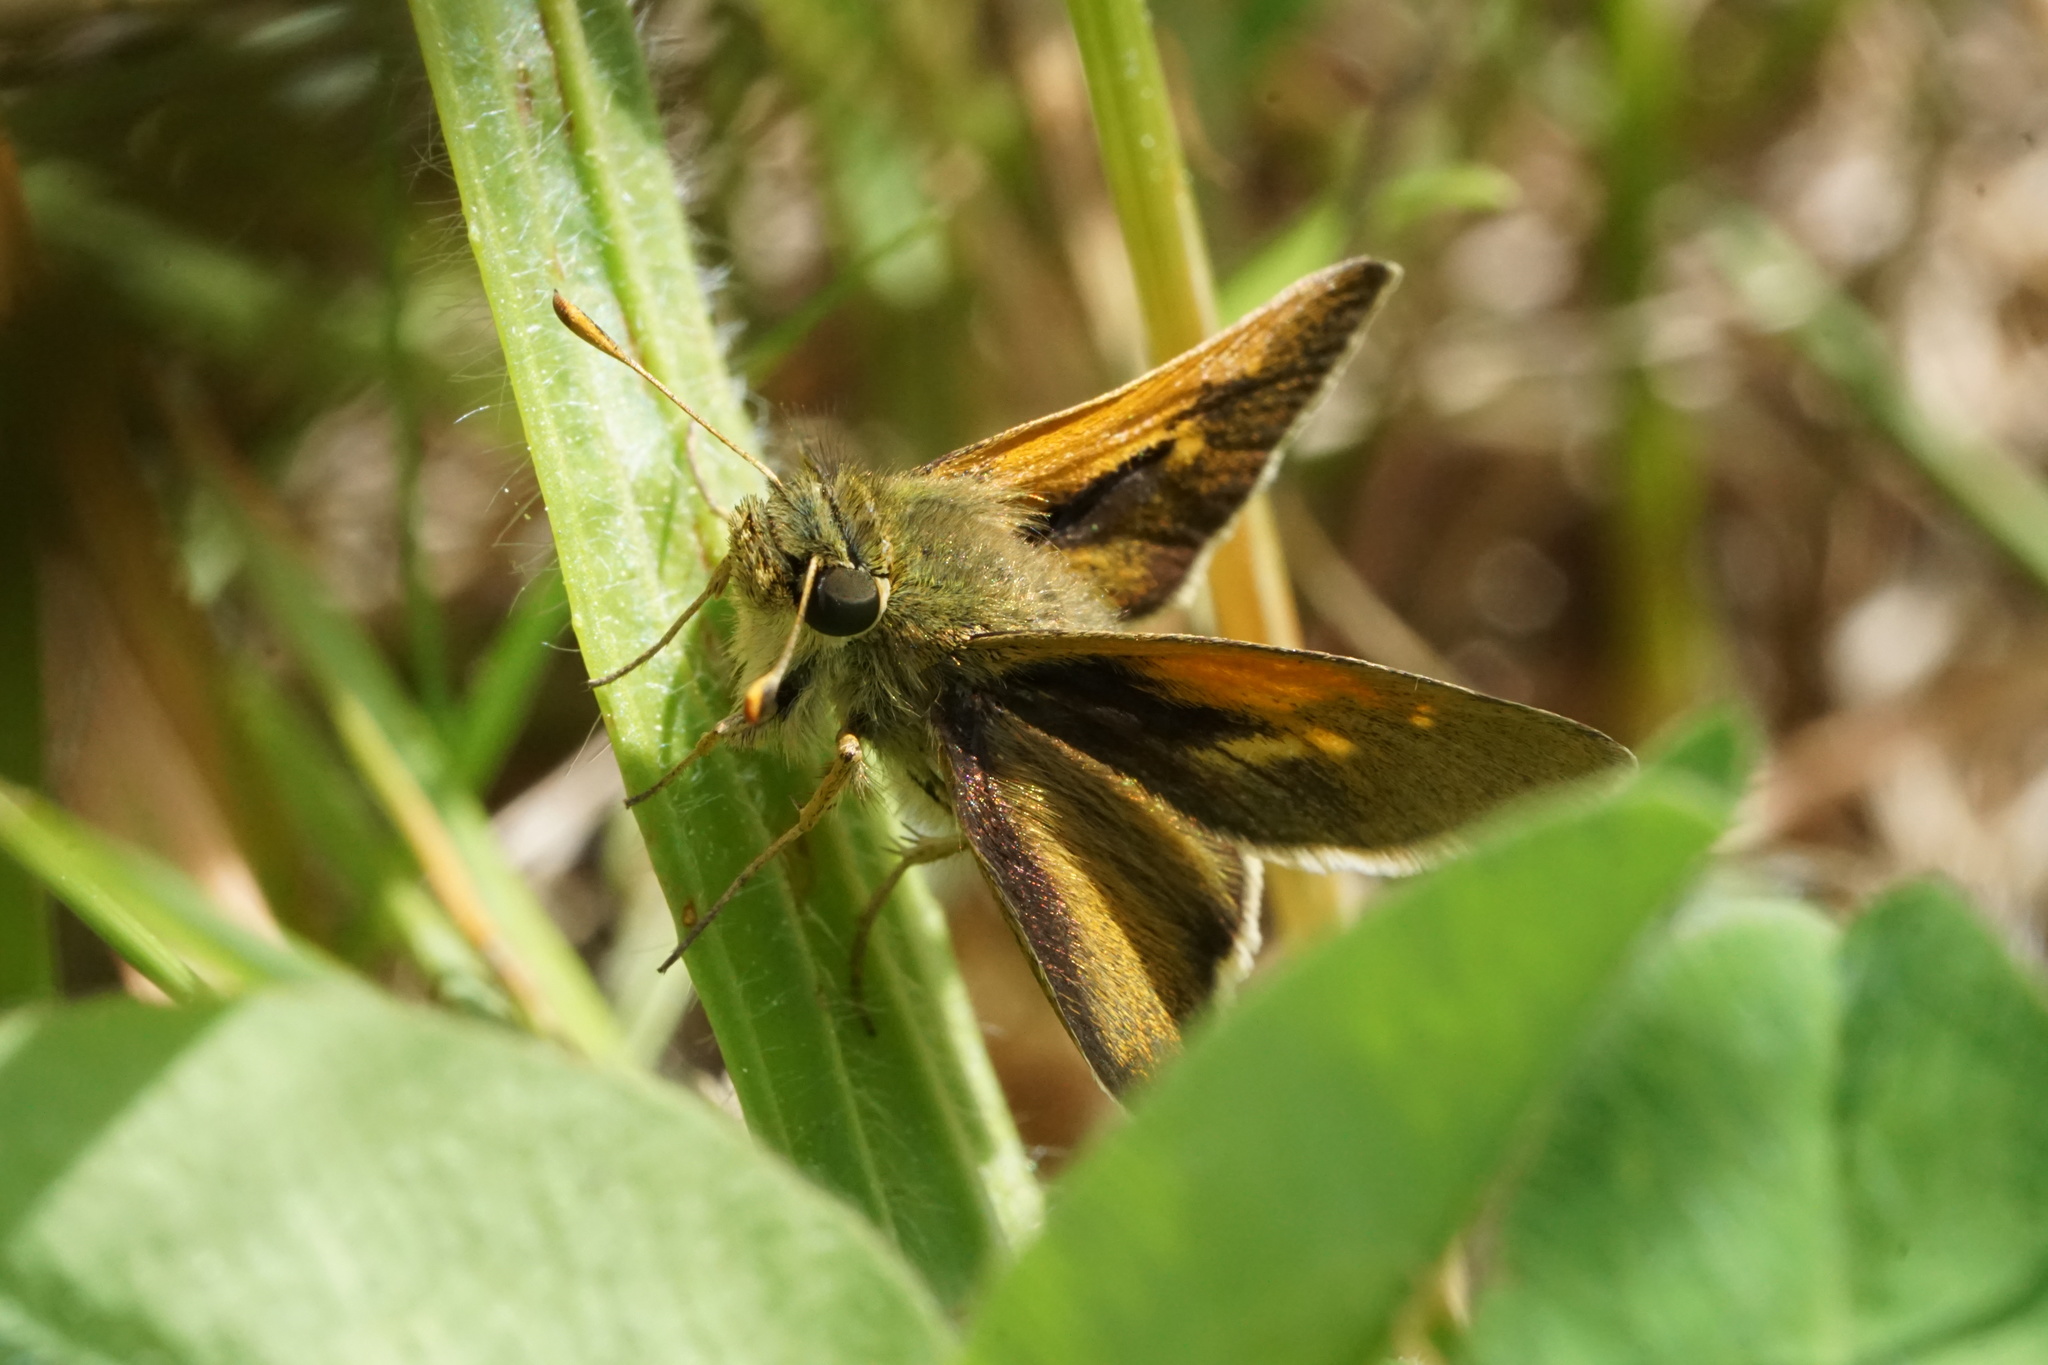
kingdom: Animalia
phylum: Arthropoda
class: Insecta
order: Lepidoptera
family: Hesperiidae
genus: Polites
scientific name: Polites themistocles
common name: Tawny-edged skipper
